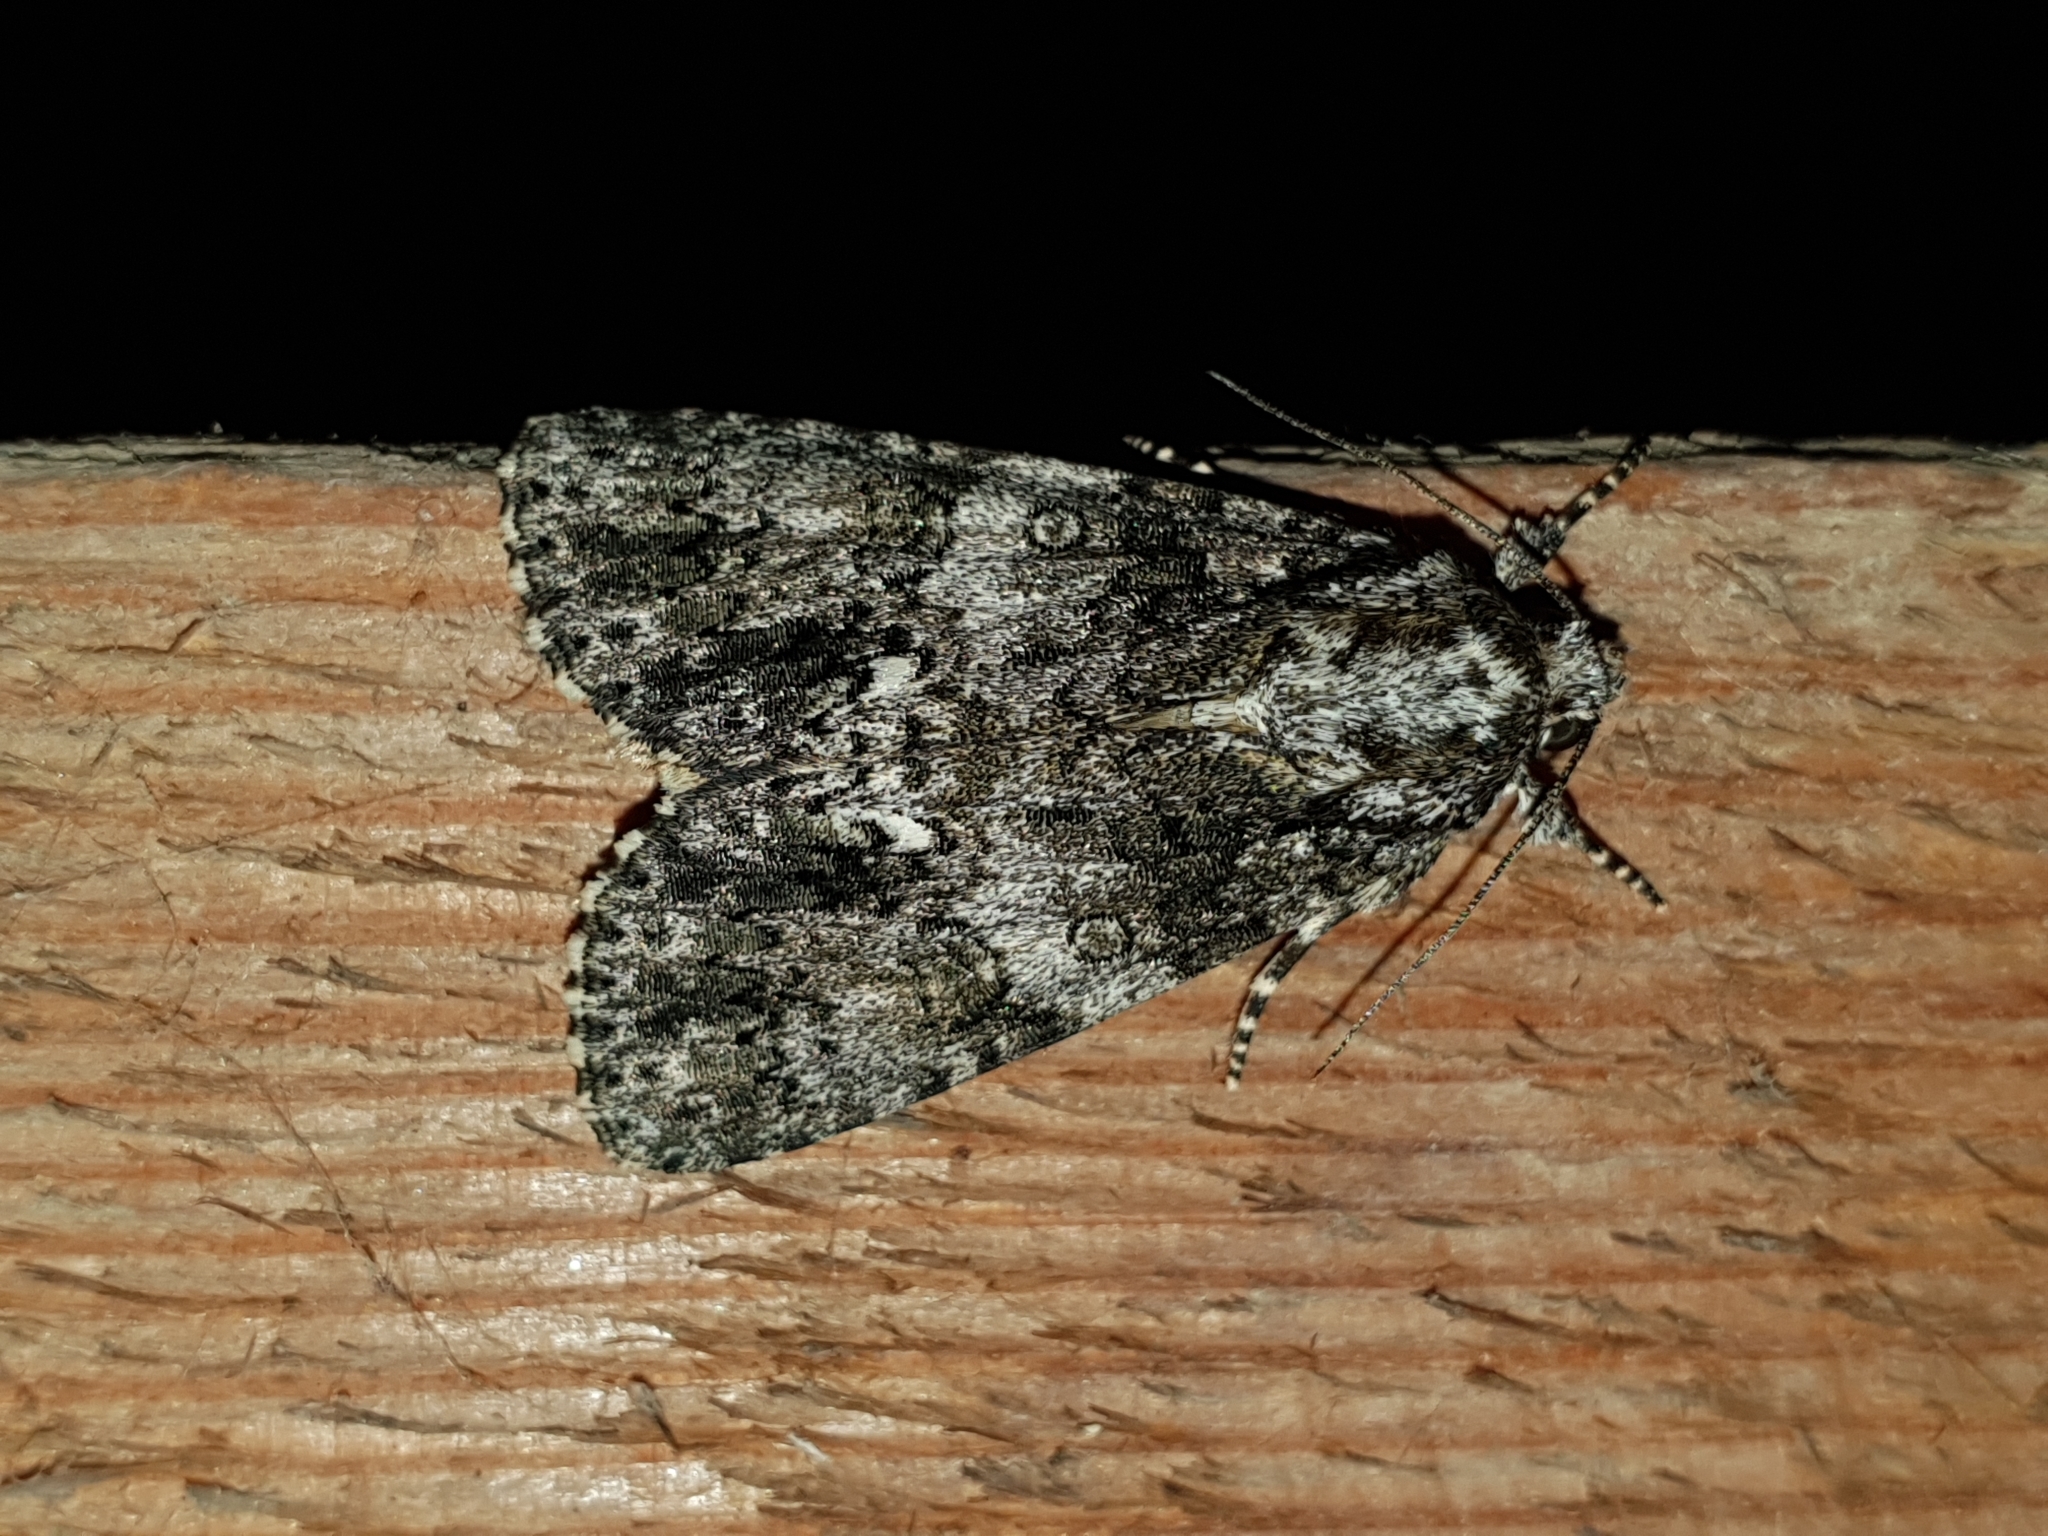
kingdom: Animalia
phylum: Arthropoda
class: Insecta
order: Lepidoptera
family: Noctuidae
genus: Acronicta
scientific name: Acronicta rumicis
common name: Knot grass
